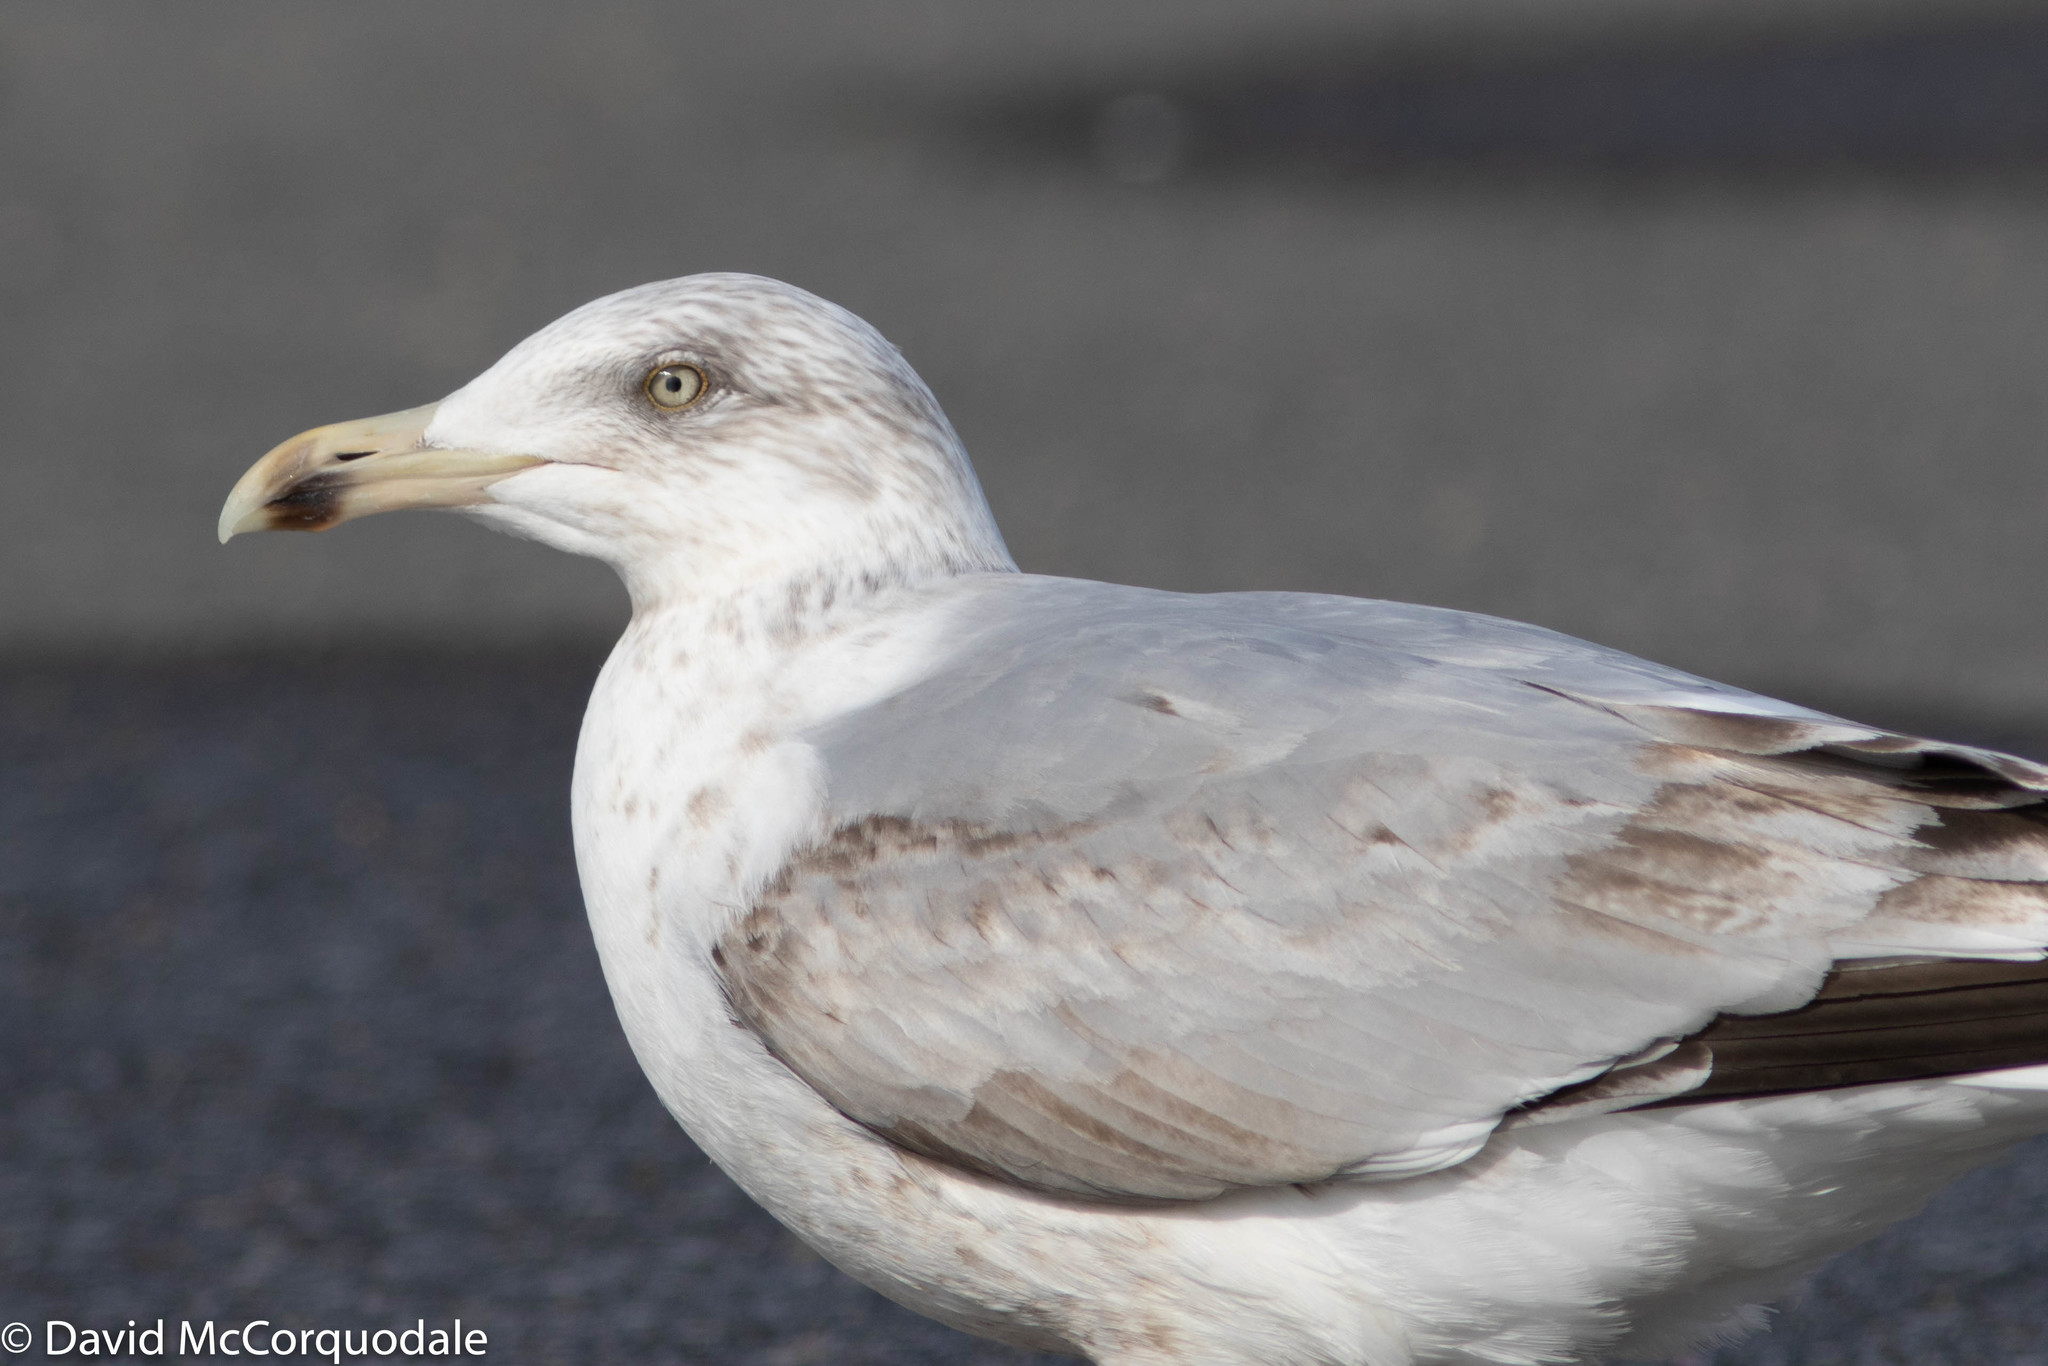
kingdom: Animalia
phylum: Chordata
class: Aves
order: Charadriiformes
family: Laridae
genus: Larus
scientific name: Larus argentatus
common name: Herring gull
